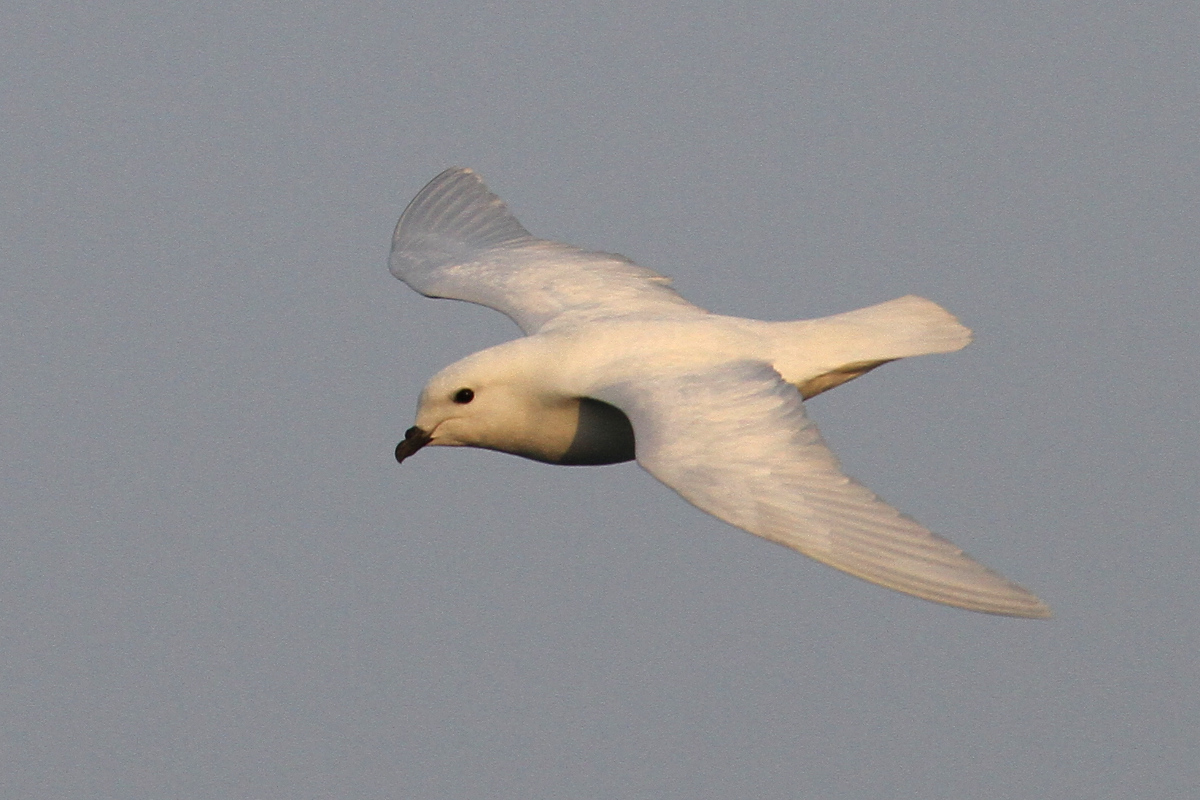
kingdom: Animalia
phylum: Chordata
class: Aves
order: Procellariiformes
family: Procellariidae
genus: Pagodroma
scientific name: Pagodroma nivea
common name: Snow petrel
